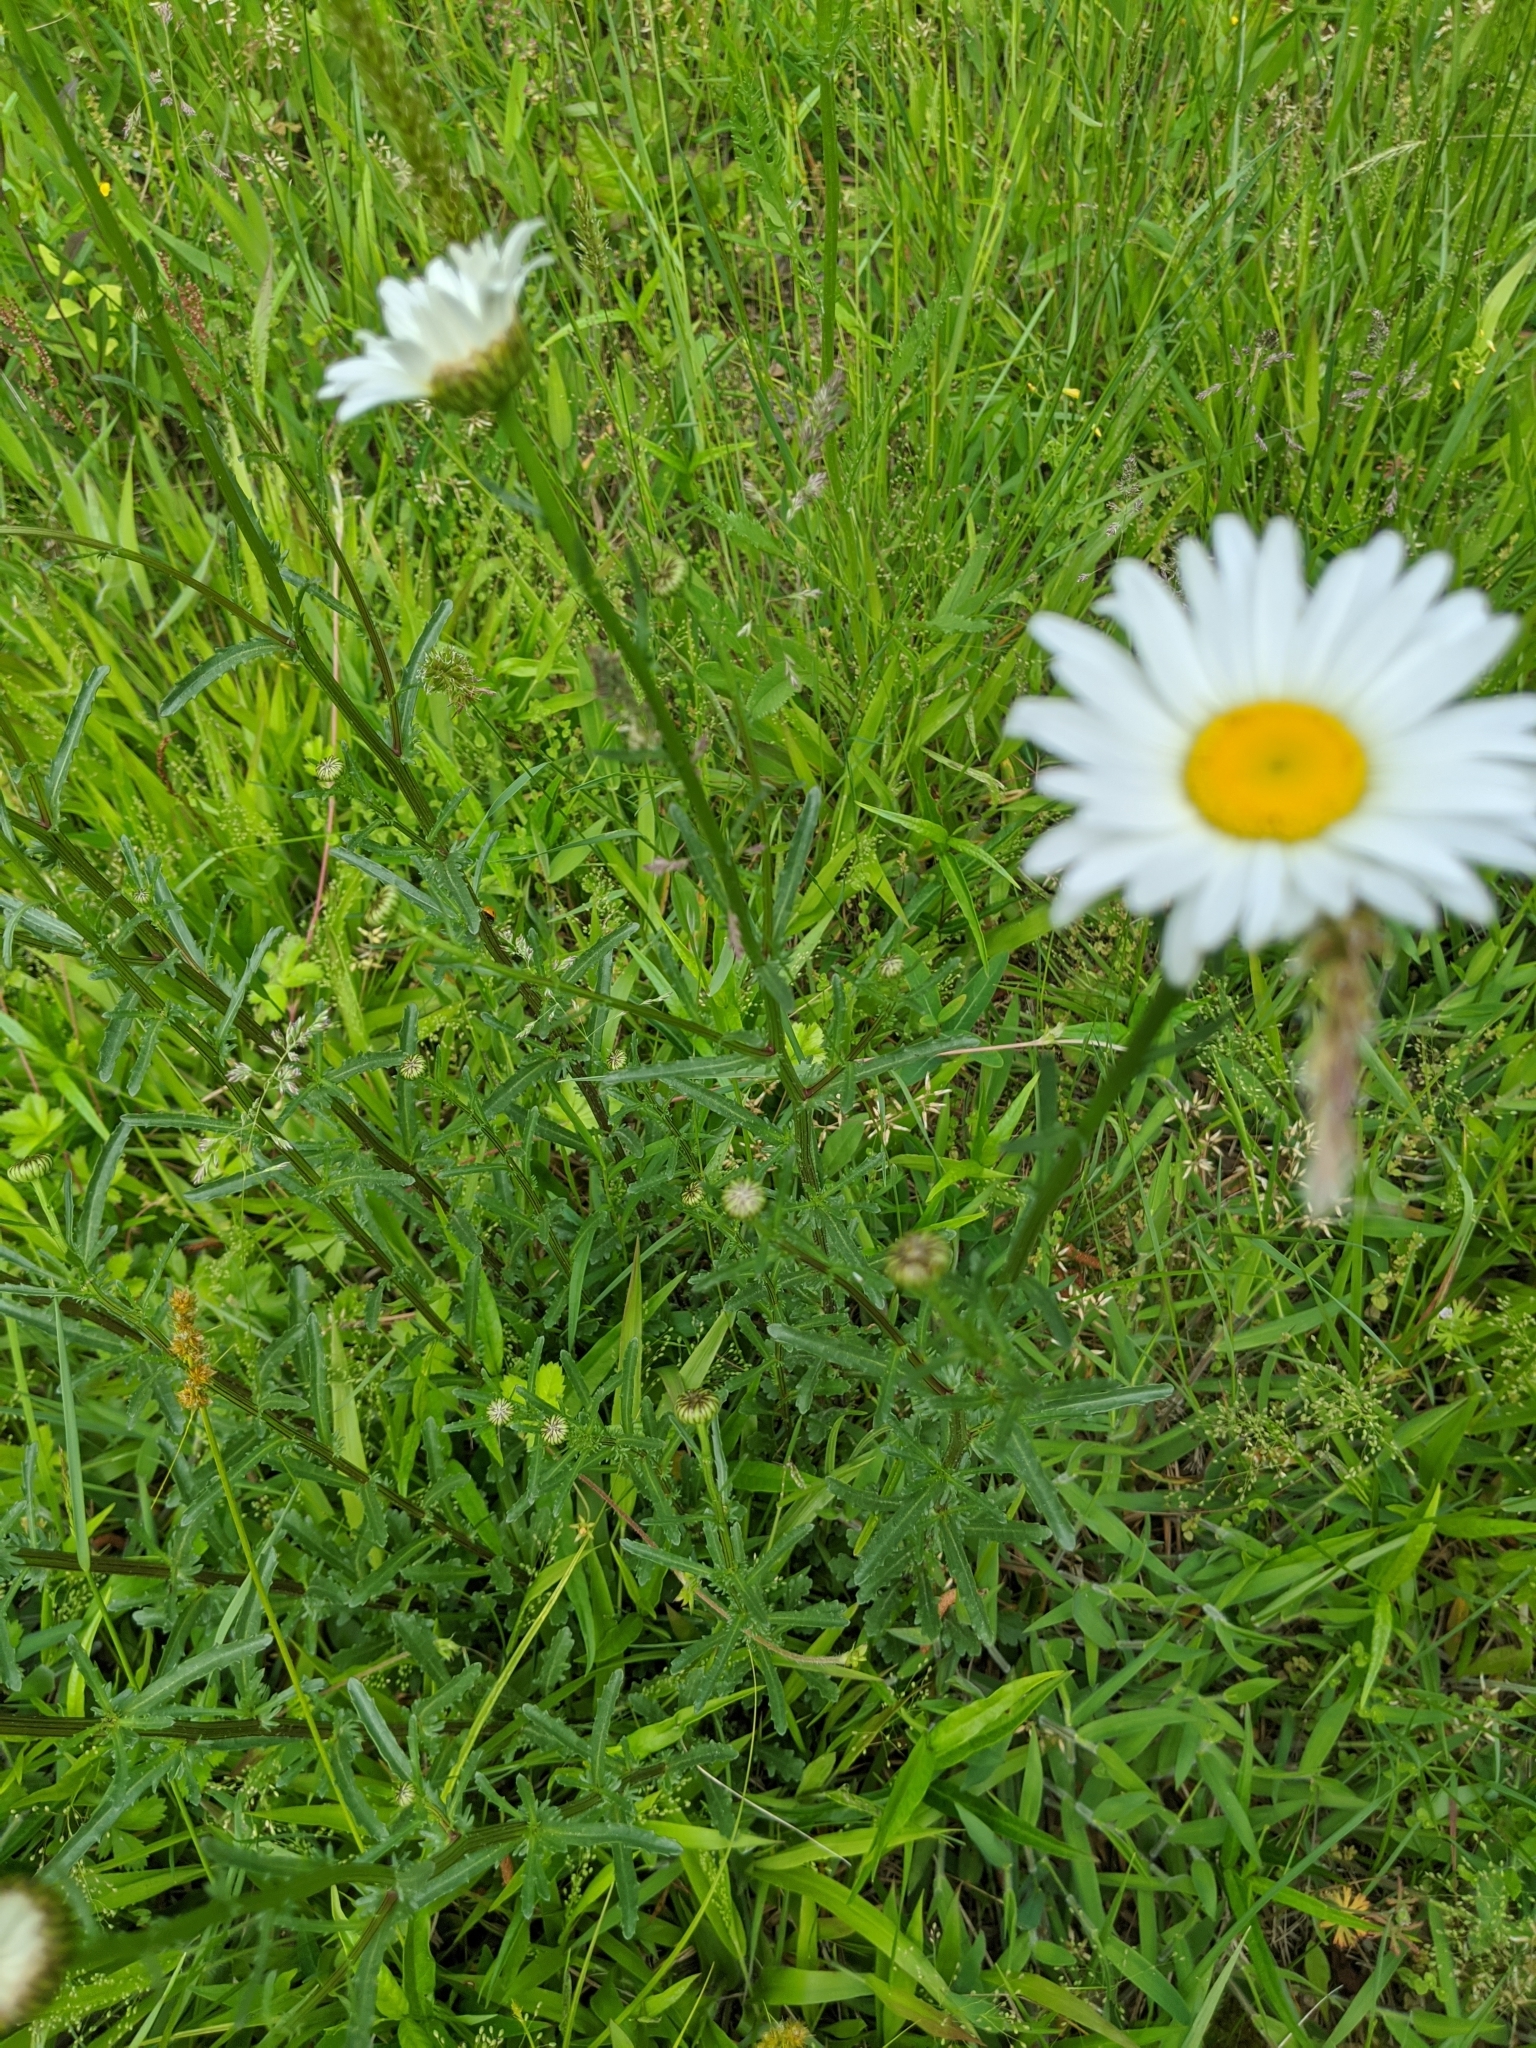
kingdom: Plantae
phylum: Tracheophyta
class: Magnoliopsida
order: Asterales
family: Asteraceae
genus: Leucanthemum
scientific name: Leucanthemum vulgare
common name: Oxeye daisy
